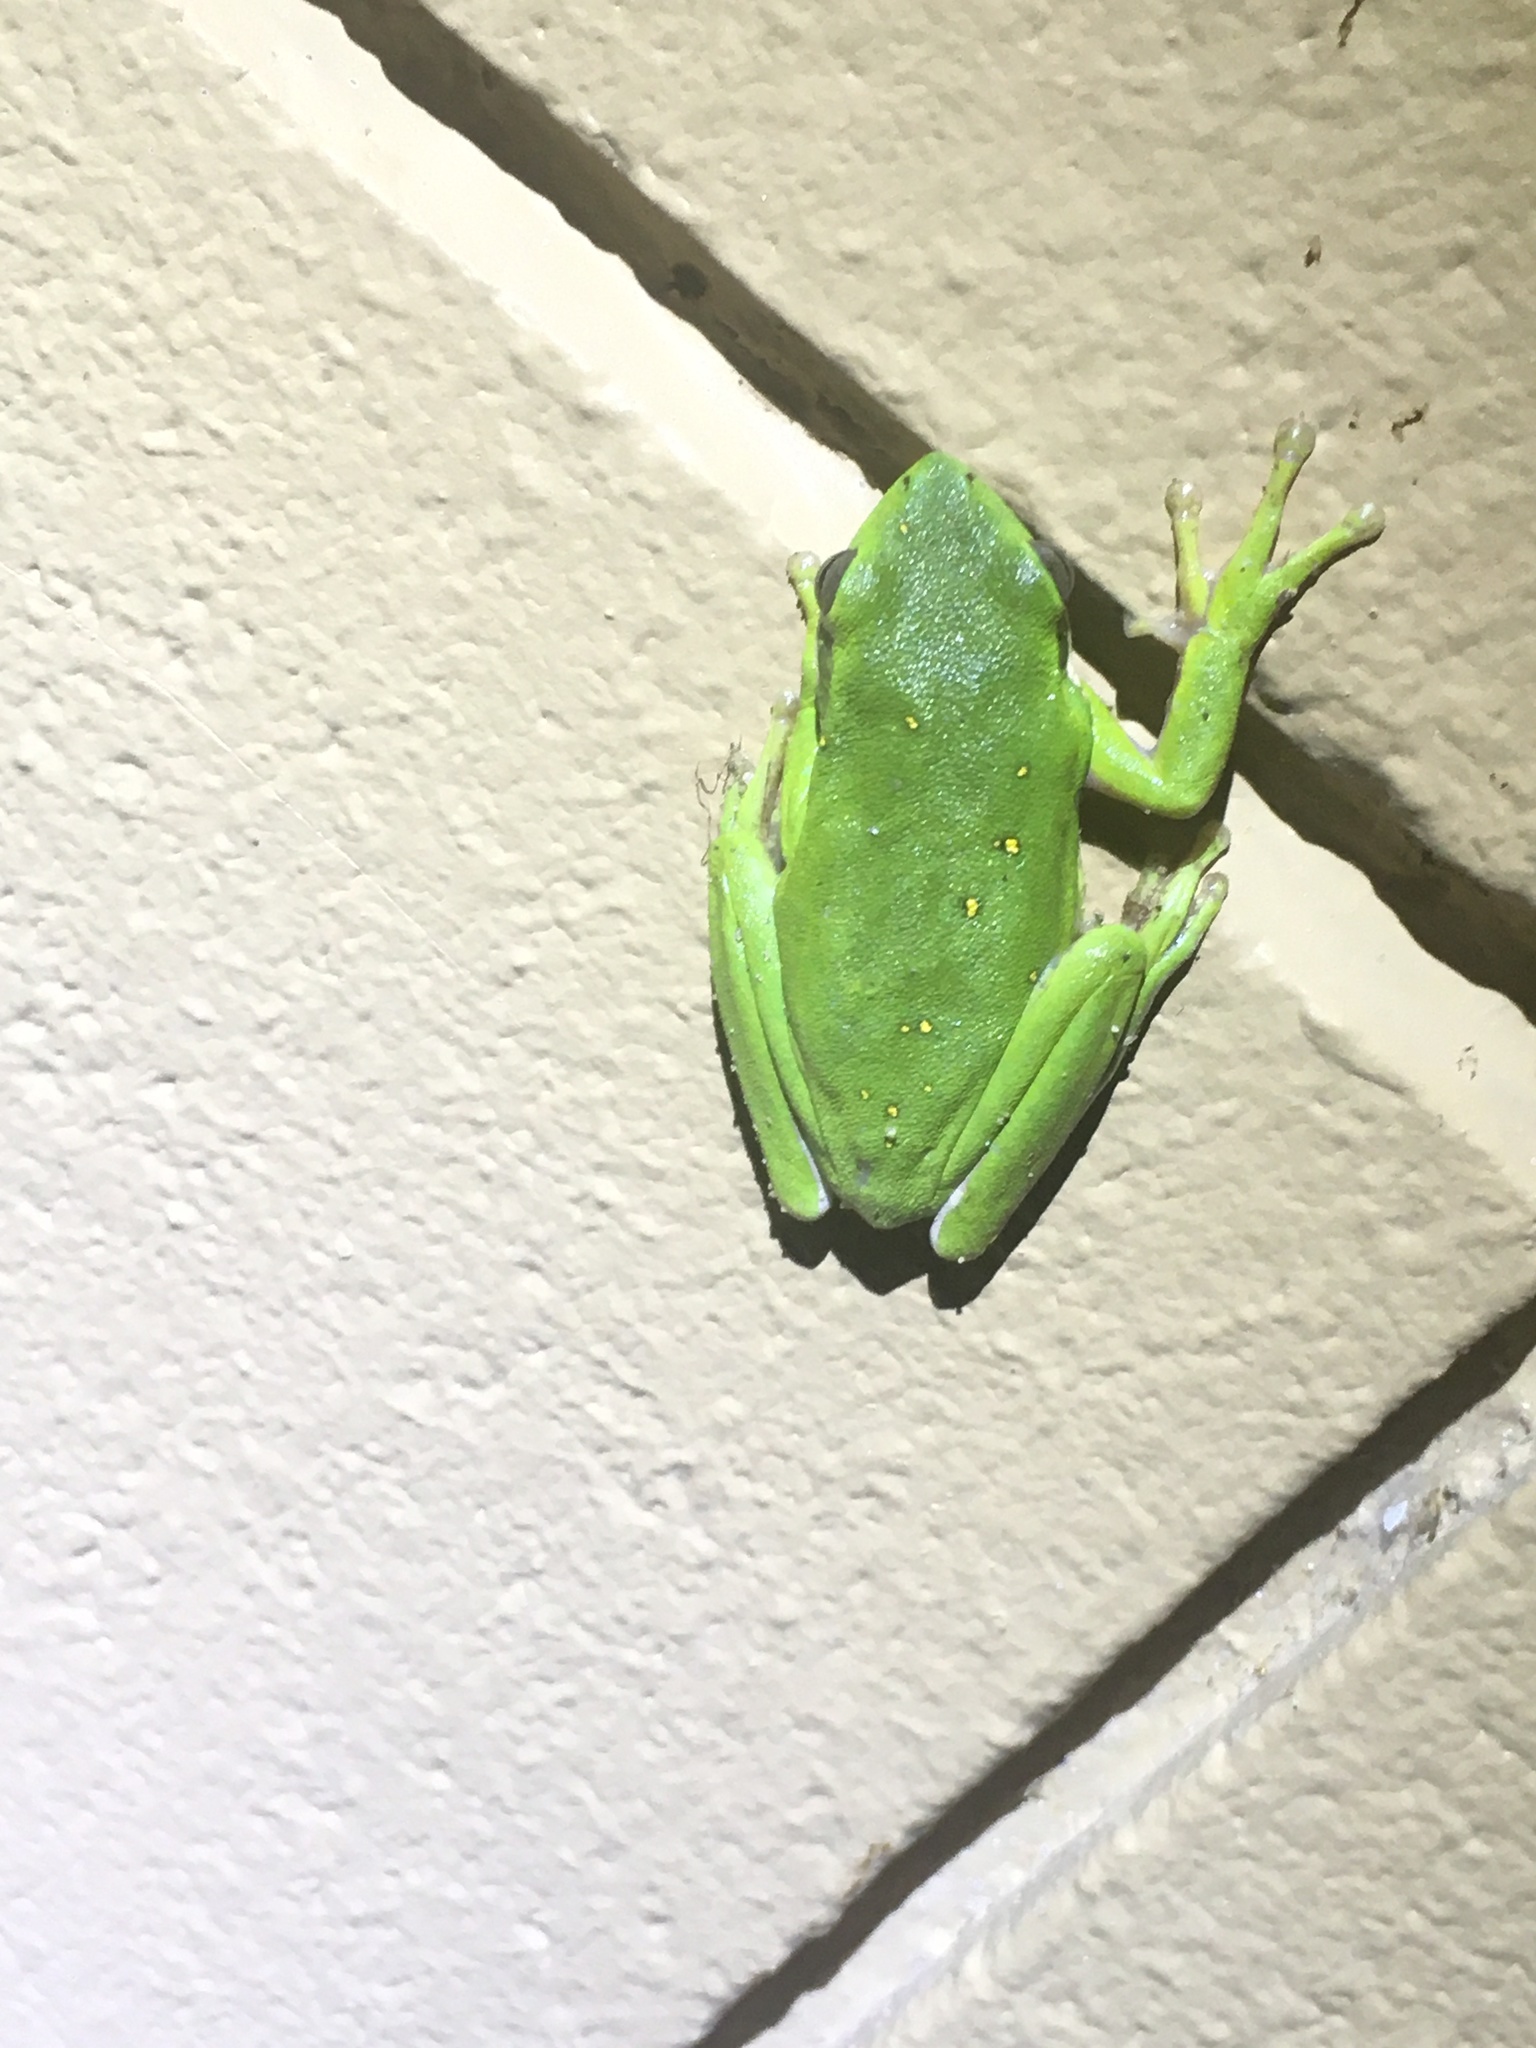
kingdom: Animalia
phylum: Chordata
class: Amphibia
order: Anura
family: Hylidae
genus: Dryophytes
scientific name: Dryophytes cinereus
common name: Green treefrog
